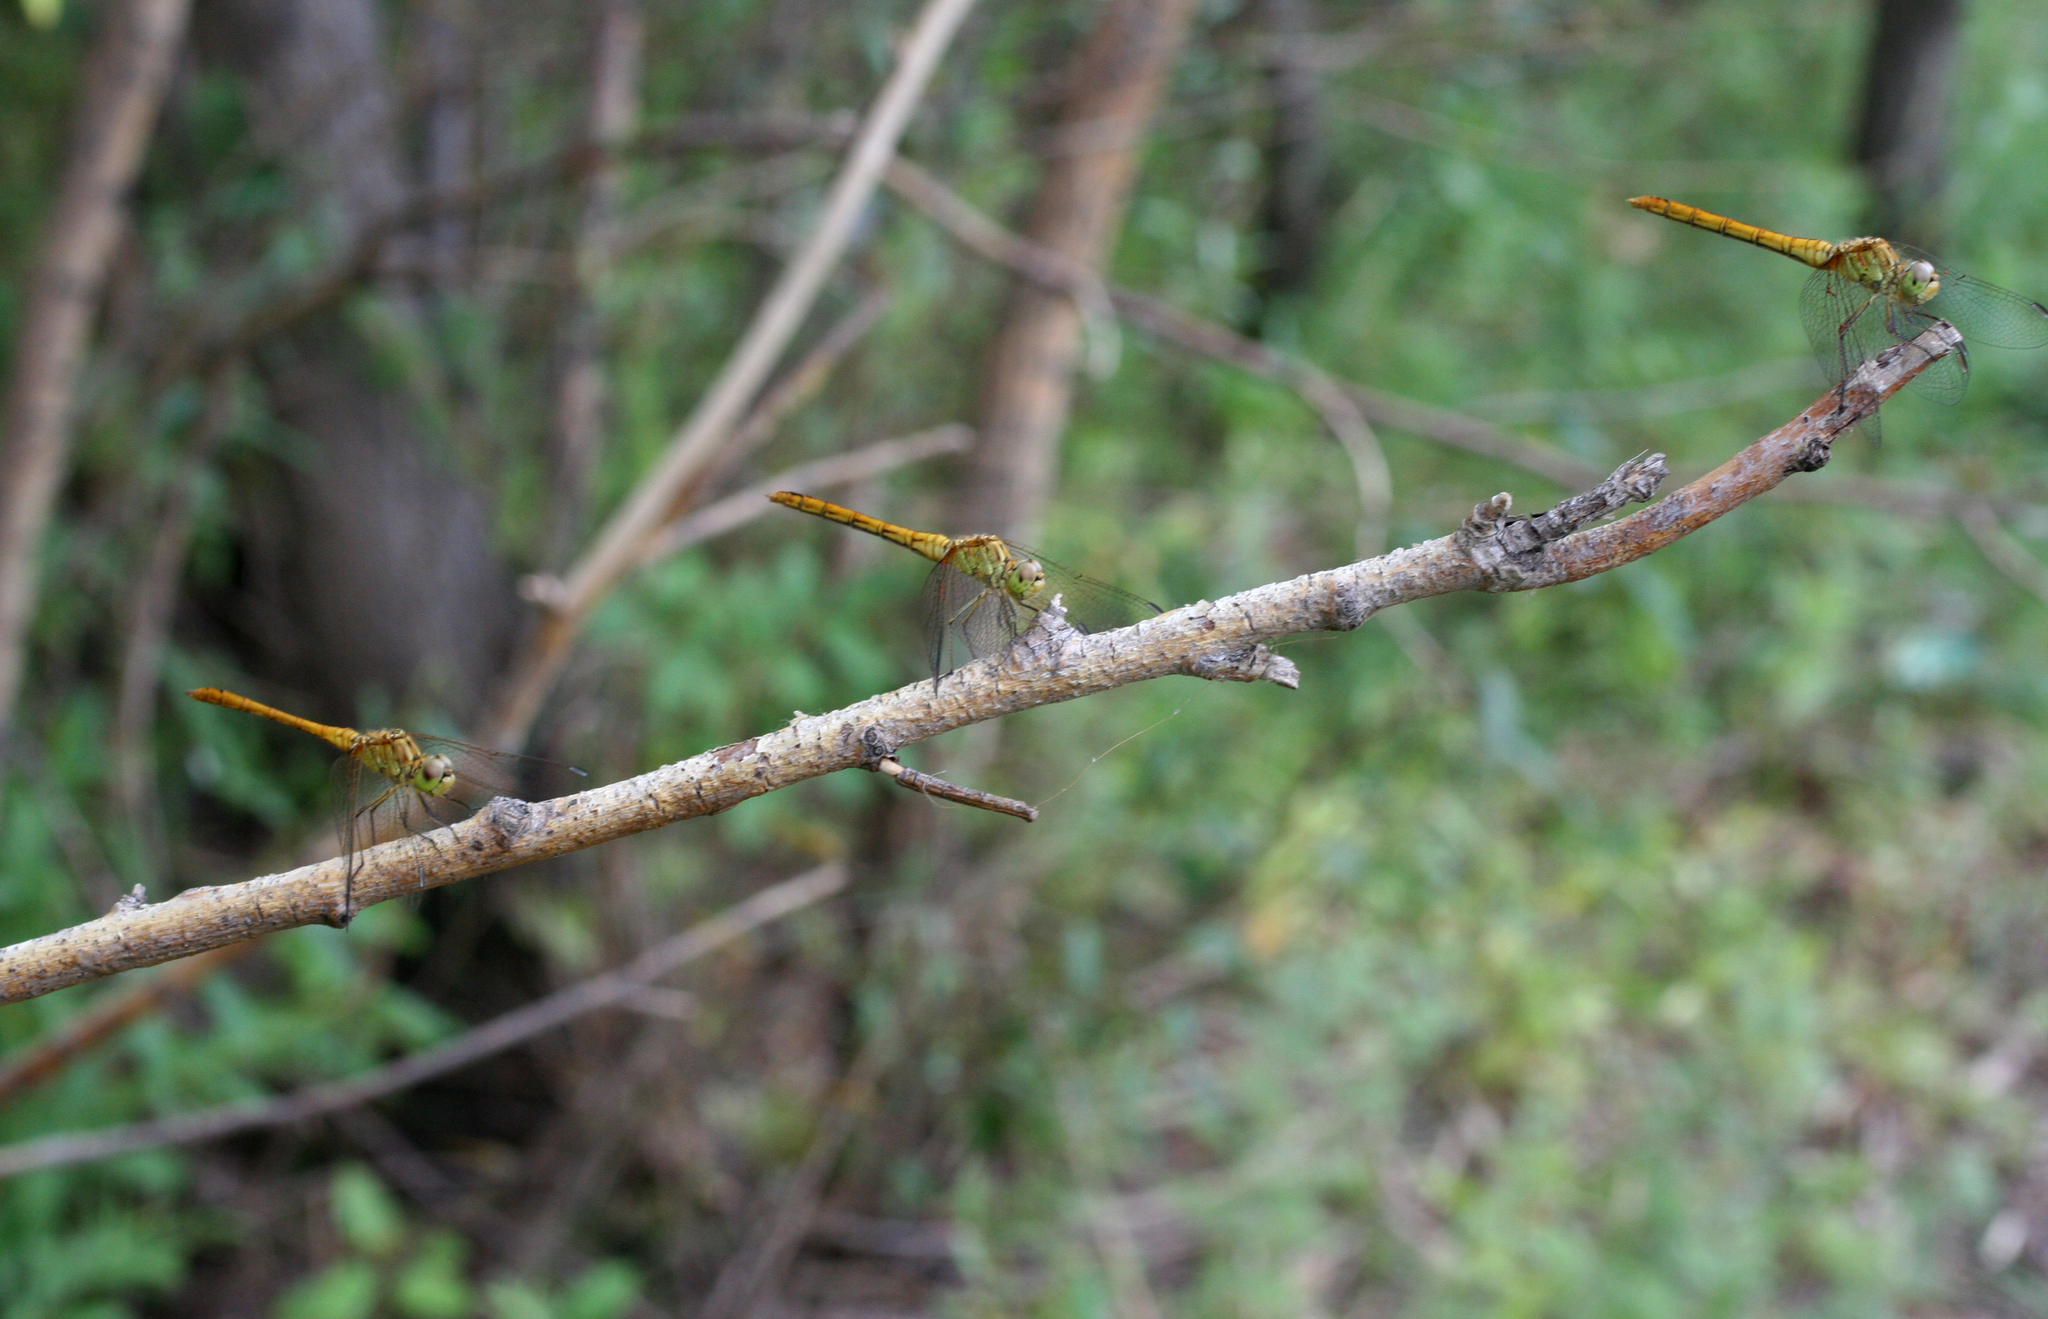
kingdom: Animalia
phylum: Arthropoda
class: Insecta
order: Odonata
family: Libellulidae
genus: Sympetrum
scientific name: Sympetrum meridionale
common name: Southern darter
